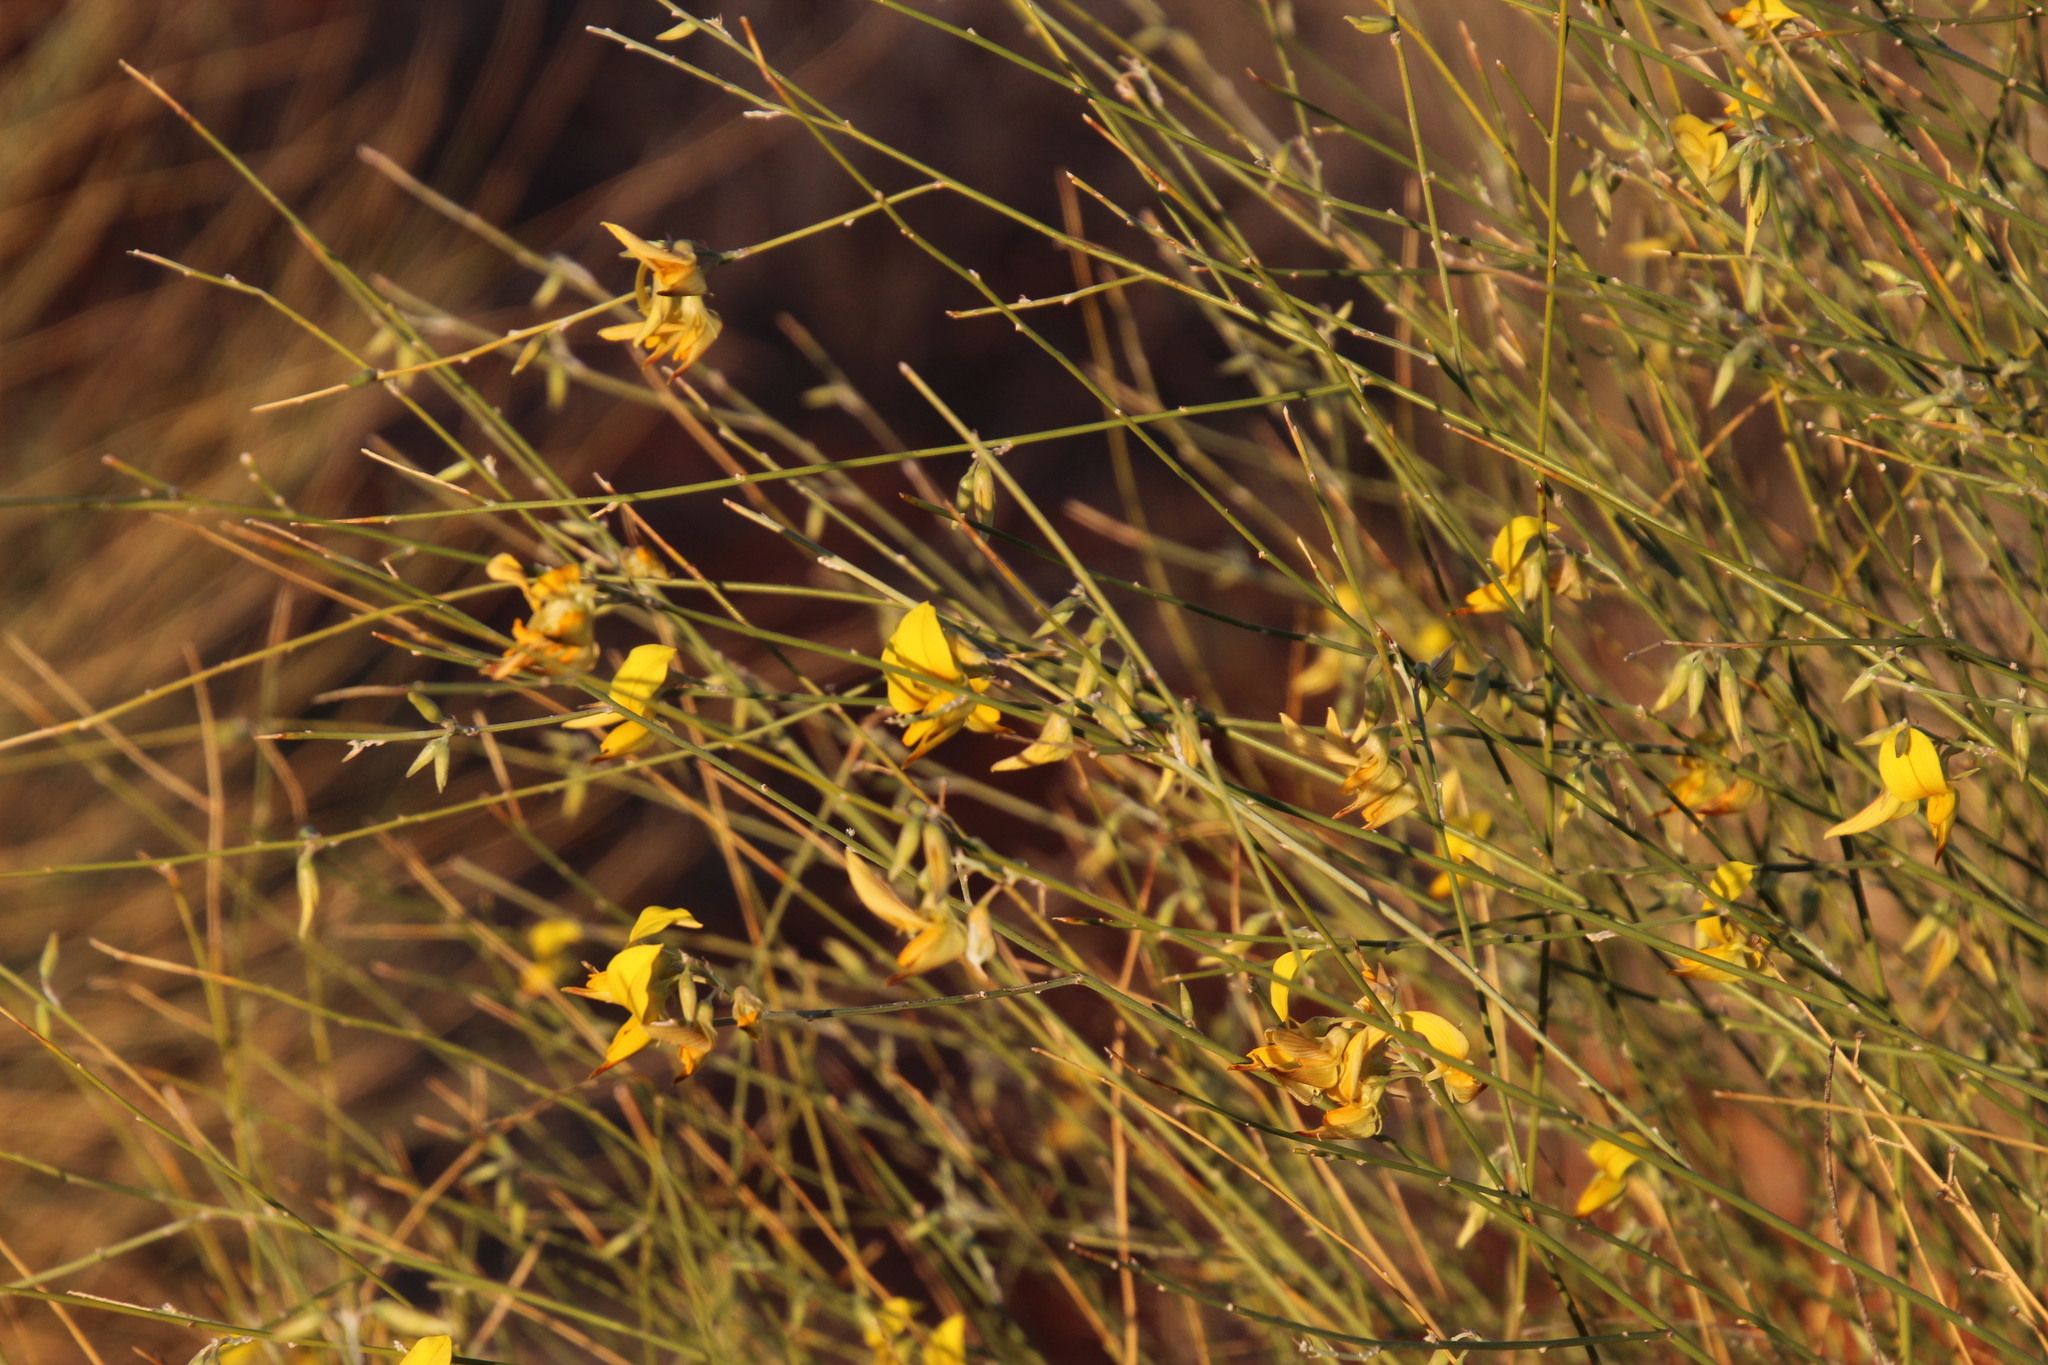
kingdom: Plantae
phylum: Tracheophyta
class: Magnoliopsida
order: Fabales
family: Fabaceae
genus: Crotalaria
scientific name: Crotalaria virgultalis
